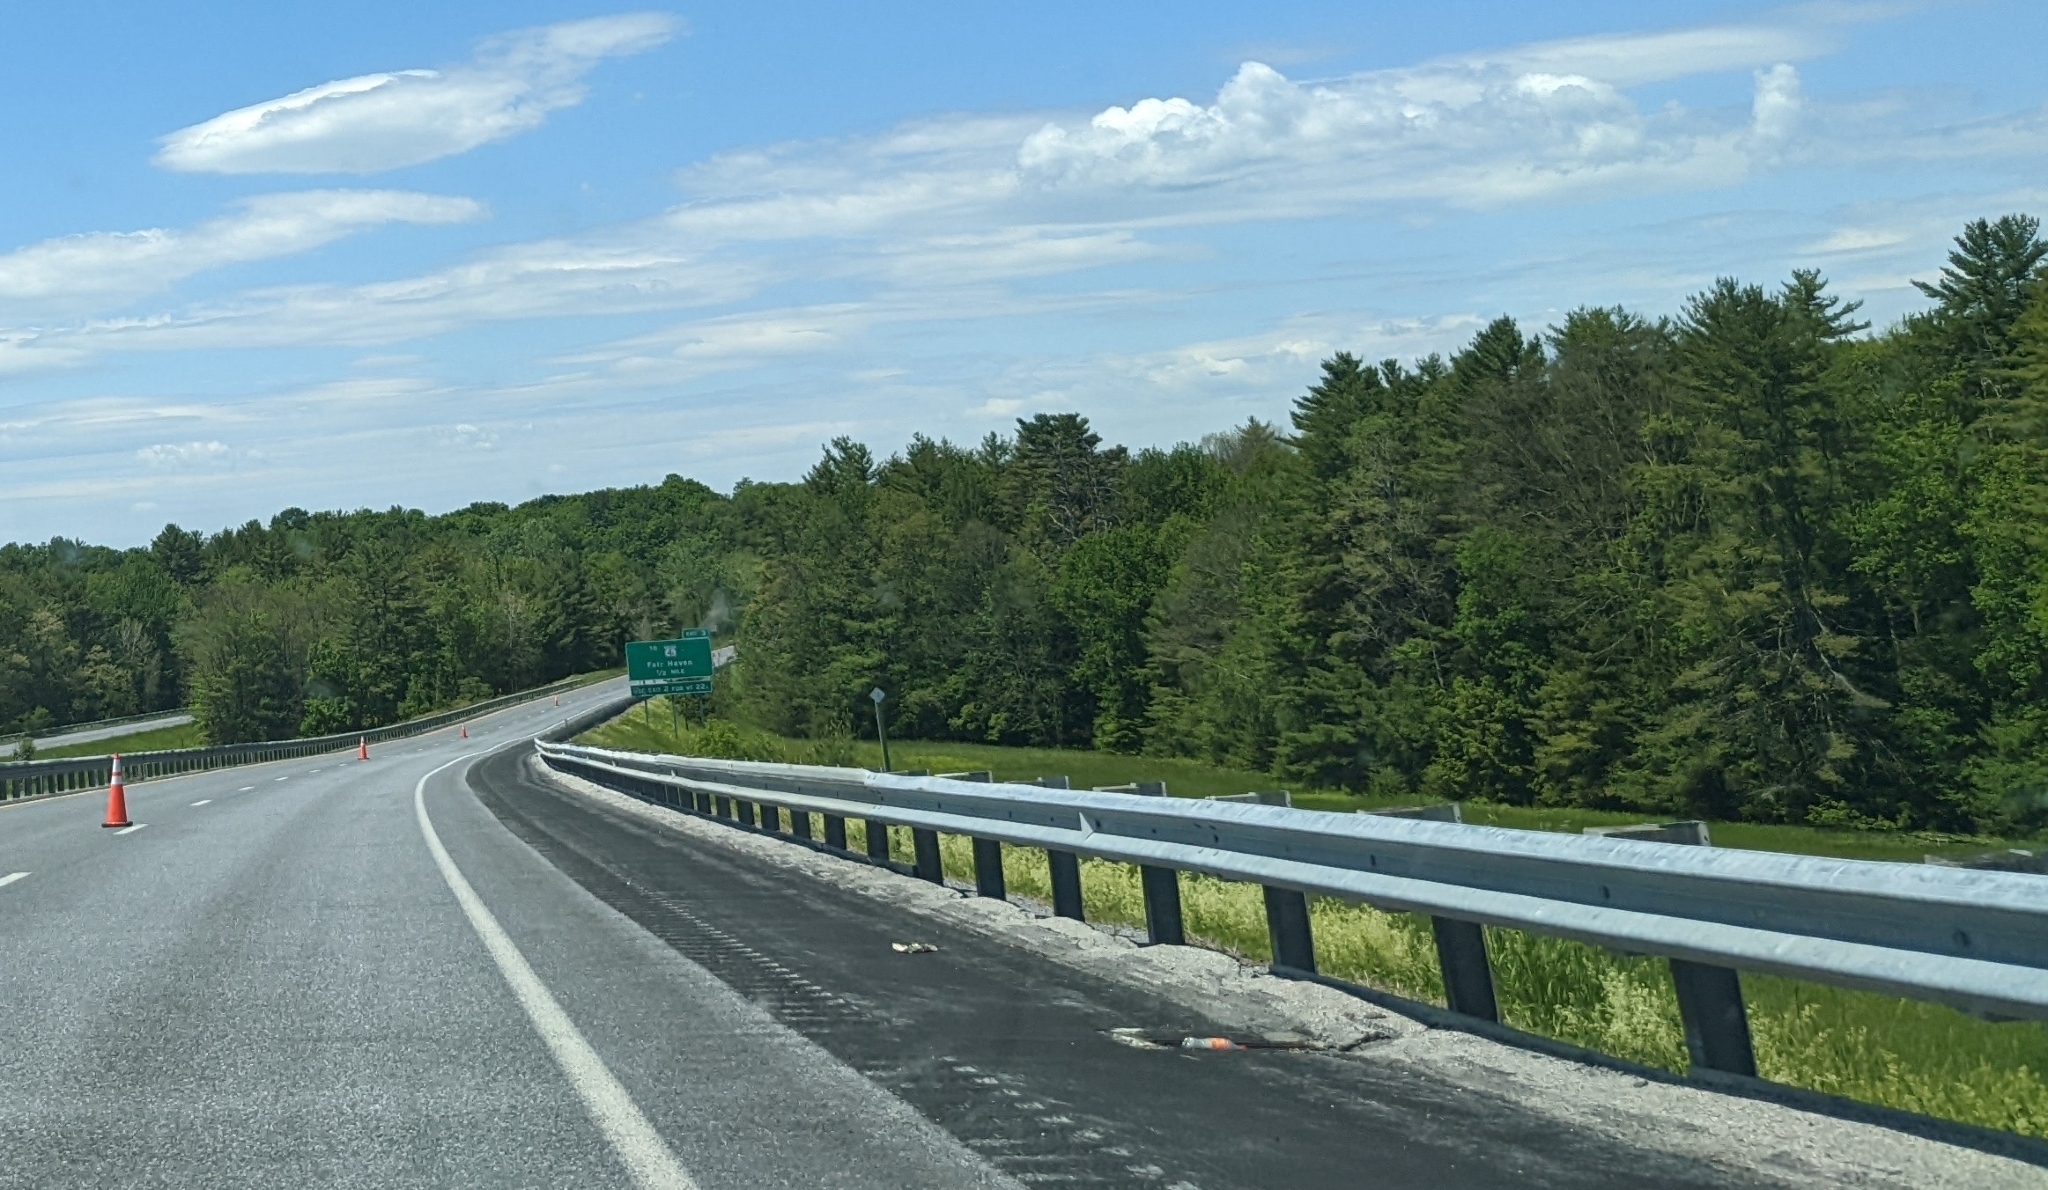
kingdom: Plantae
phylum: Tracheophyta
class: Pinopsida
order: Pinales
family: Pinaceae
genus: Pinus
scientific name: Pinus strobus
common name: Weymouth pine
